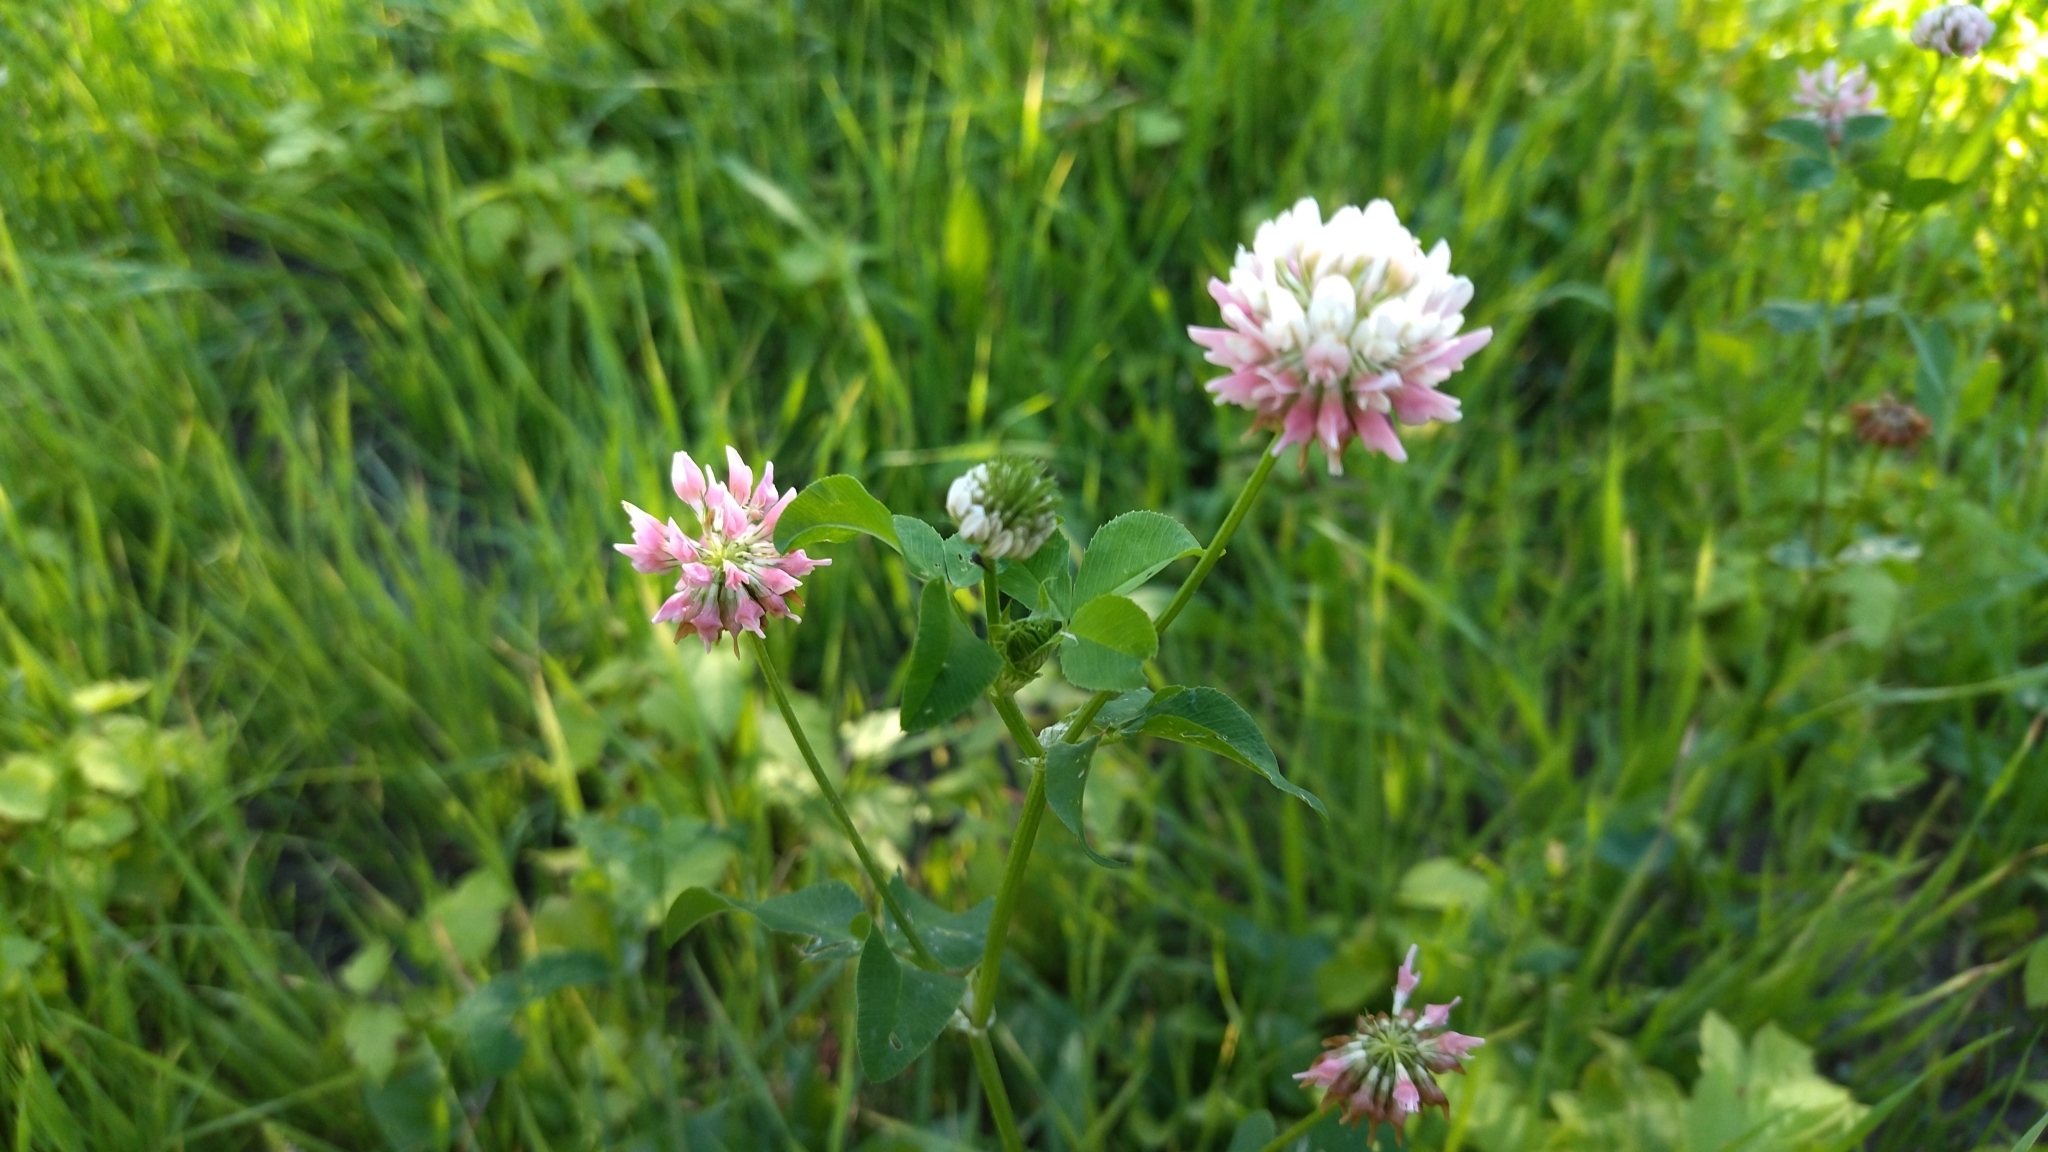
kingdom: Plantae
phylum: Tracheophyta
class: Magnoliopsida
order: Fabales
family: Fabaceae
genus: Trifolium
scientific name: Trifolium hybridum
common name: Alsike clover
